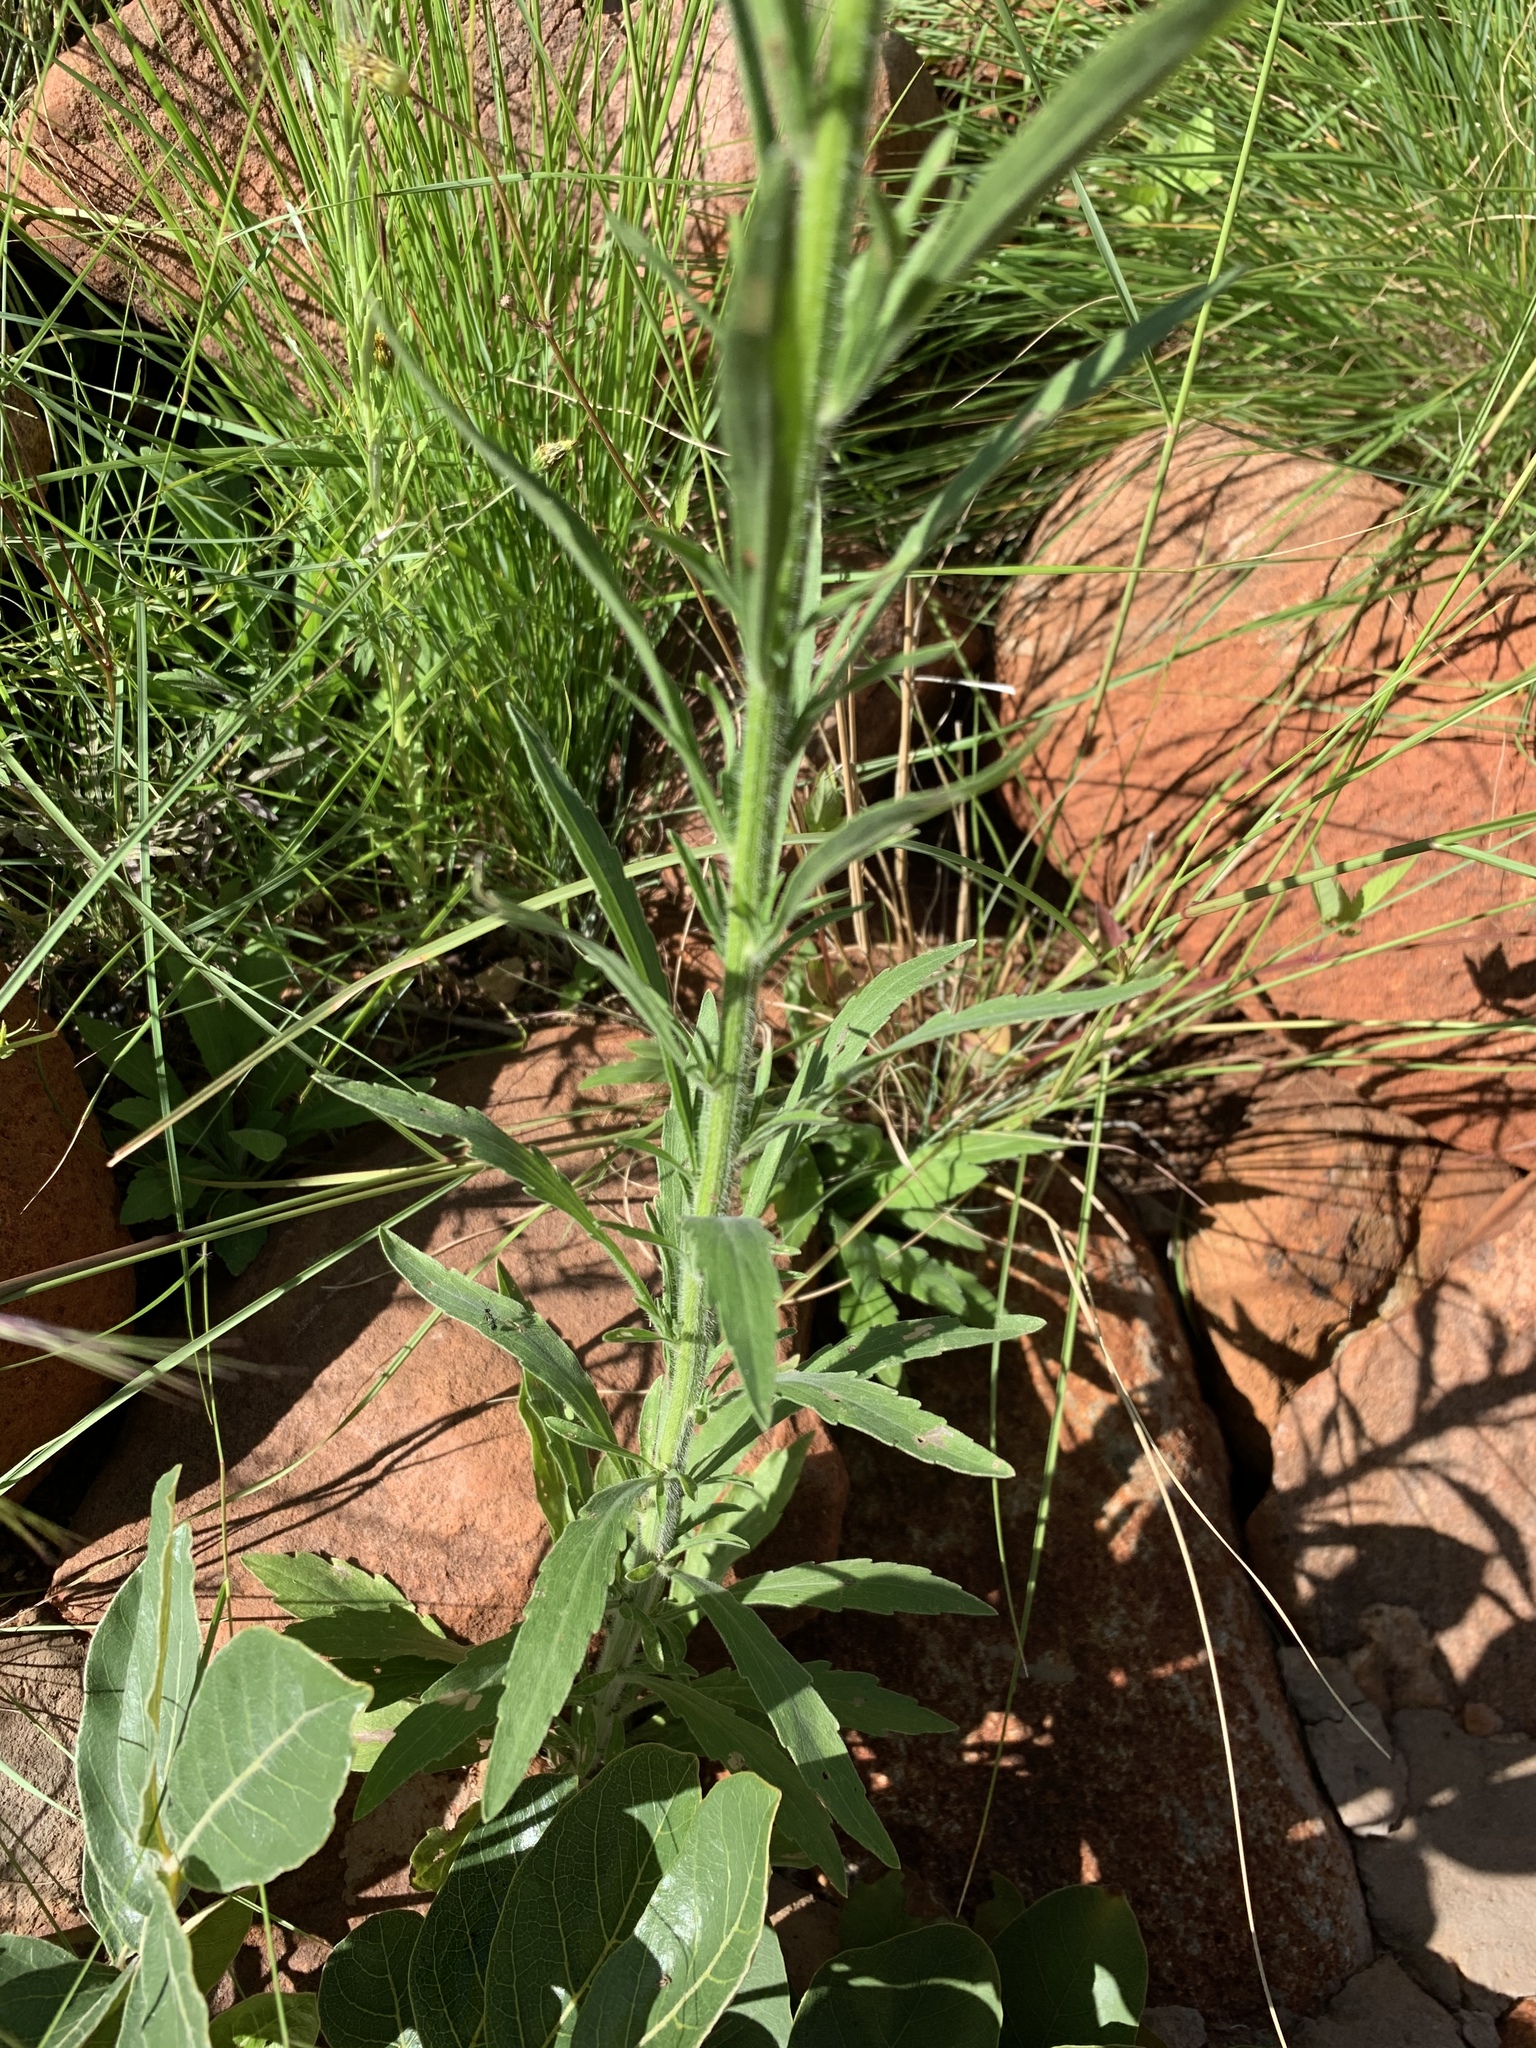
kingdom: Plantae
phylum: Tracheophyta
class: Magnoliopsida
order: Asterales
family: Asteraceae
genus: Erigeron
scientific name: Erigeron sumatrensis
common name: Daisy
